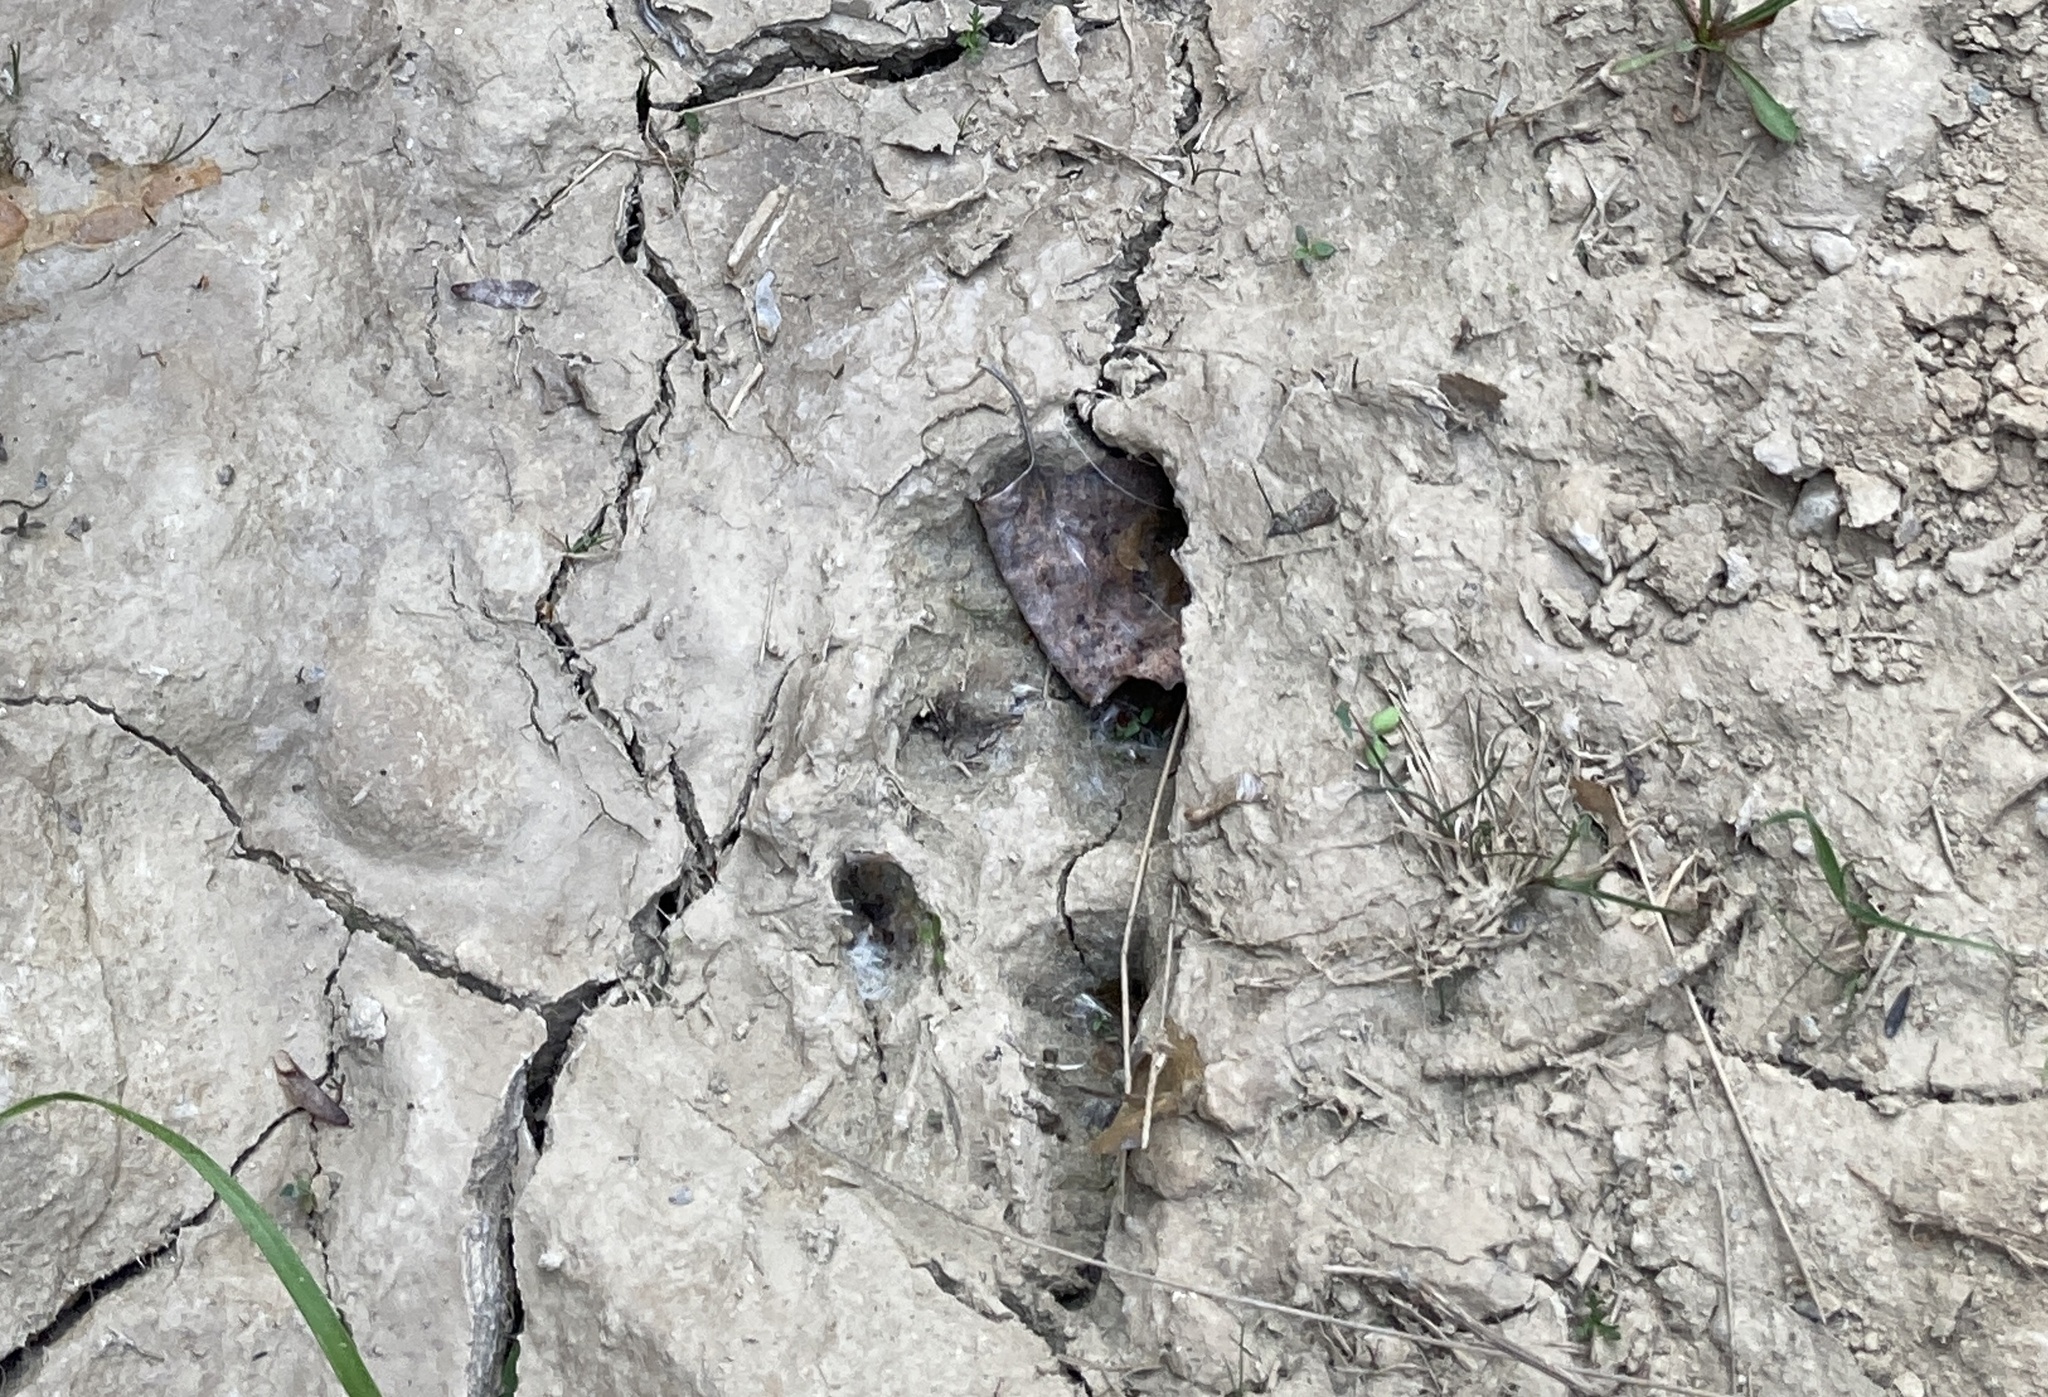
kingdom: Animalia
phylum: Chordata
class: Mammalia
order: Artiodactyla
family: Suidae
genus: Sus
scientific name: Sus scrofa
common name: Wild boar
